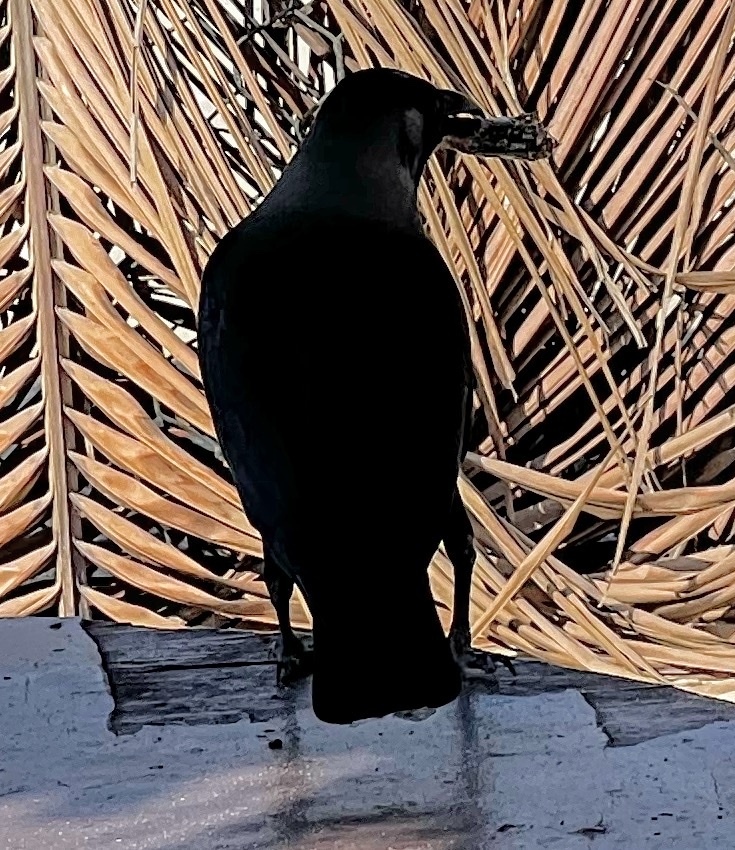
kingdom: Animalia
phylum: Chordata
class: Aves
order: Passeriformes
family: Corvidae
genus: Corvus
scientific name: Corvus splendens
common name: House crow
